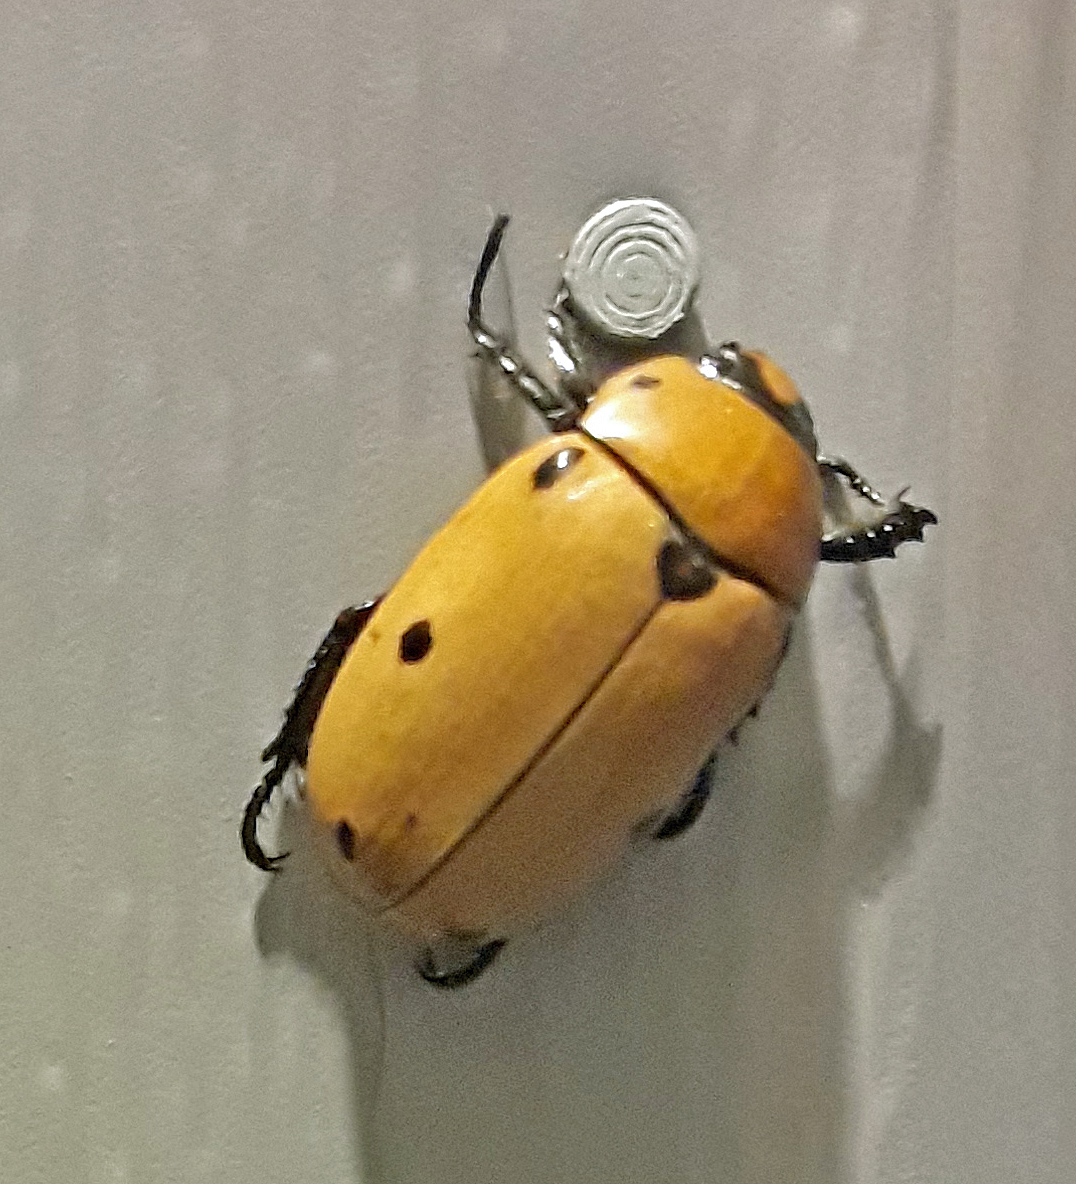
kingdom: Animalia
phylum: Arthropoda
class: Insecta
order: Coleoptera
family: Scarabaeidae
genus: Pelidnota
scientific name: Pelidnota punctata
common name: Grapevine beetle
